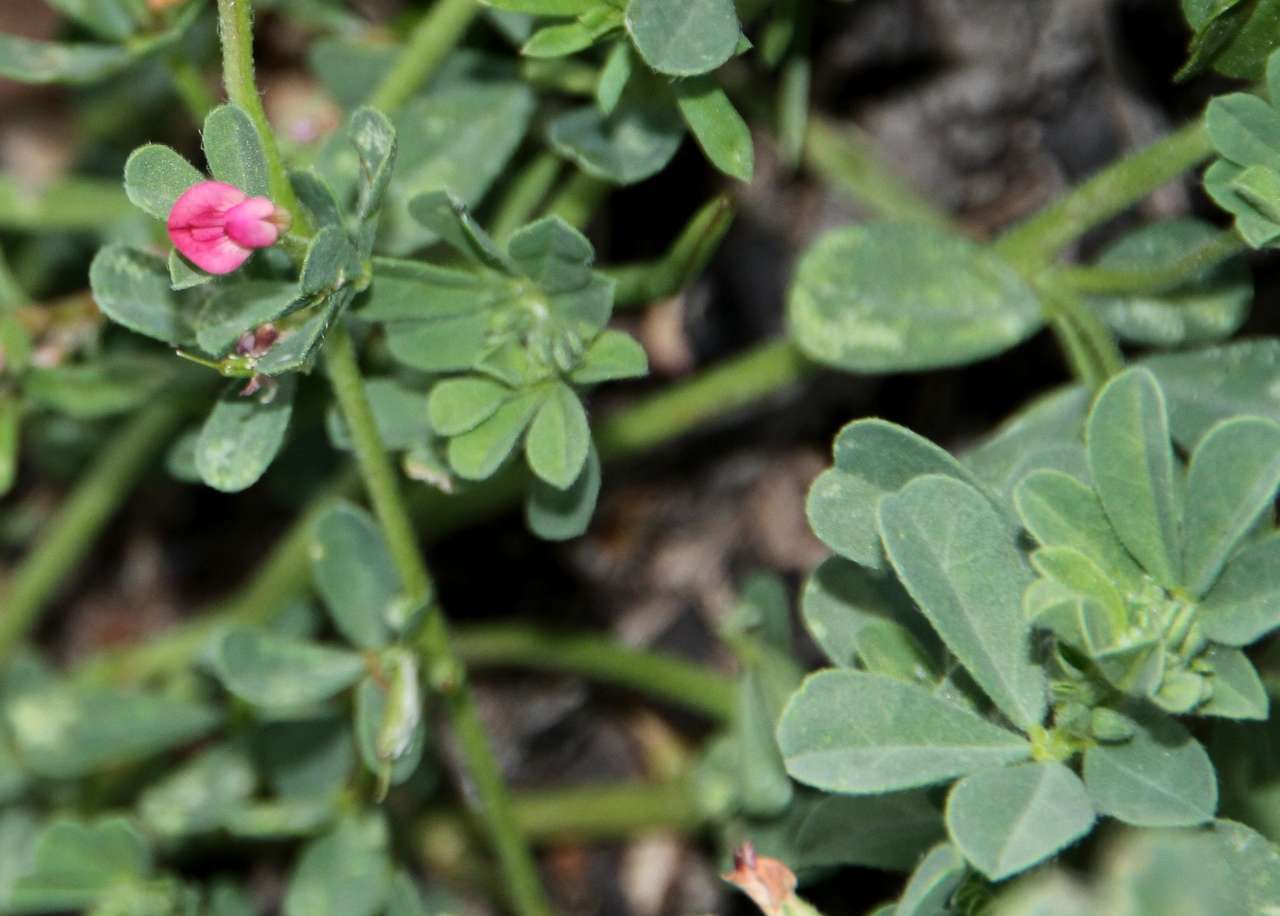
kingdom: Plantae
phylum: Tracheophyta
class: Magnoliopsida
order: Fabales
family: Fabaceae
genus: Lotus
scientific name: Lotus cruentus
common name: Red bird's-foot trefoil
